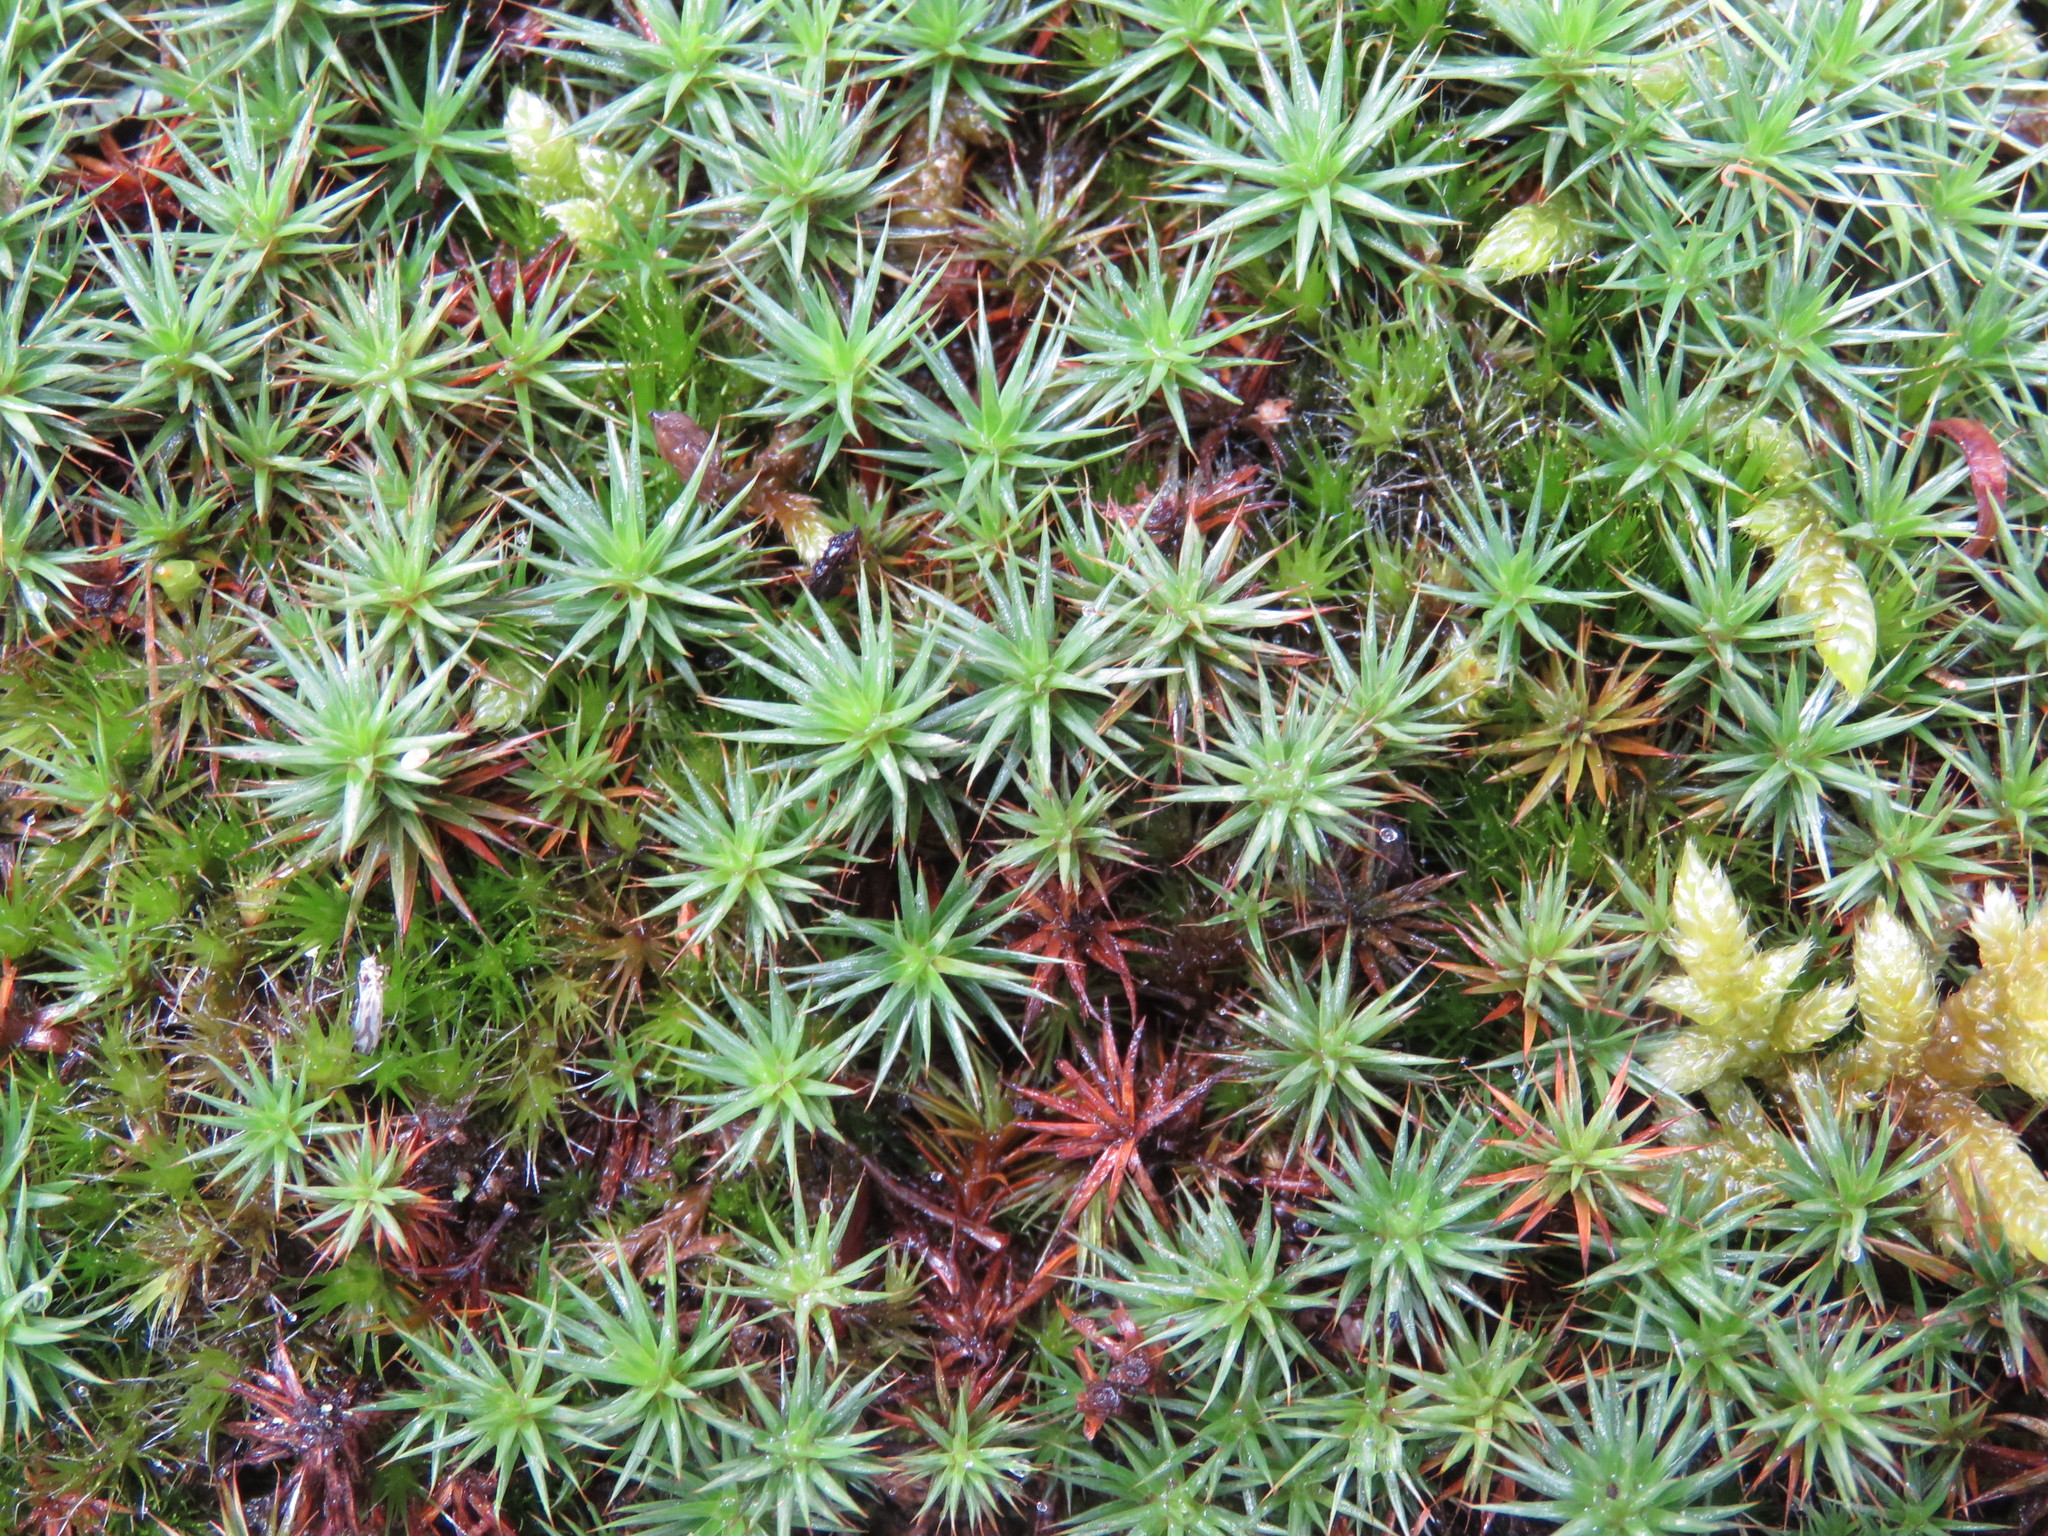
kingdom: Plantae
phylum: Bryophyta
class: Polytrichopsida
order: Polytrichales
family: Polytrichaceae
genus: Polytrichum
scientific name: Polytrichum juniperinum
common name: Juniper haircap moss
